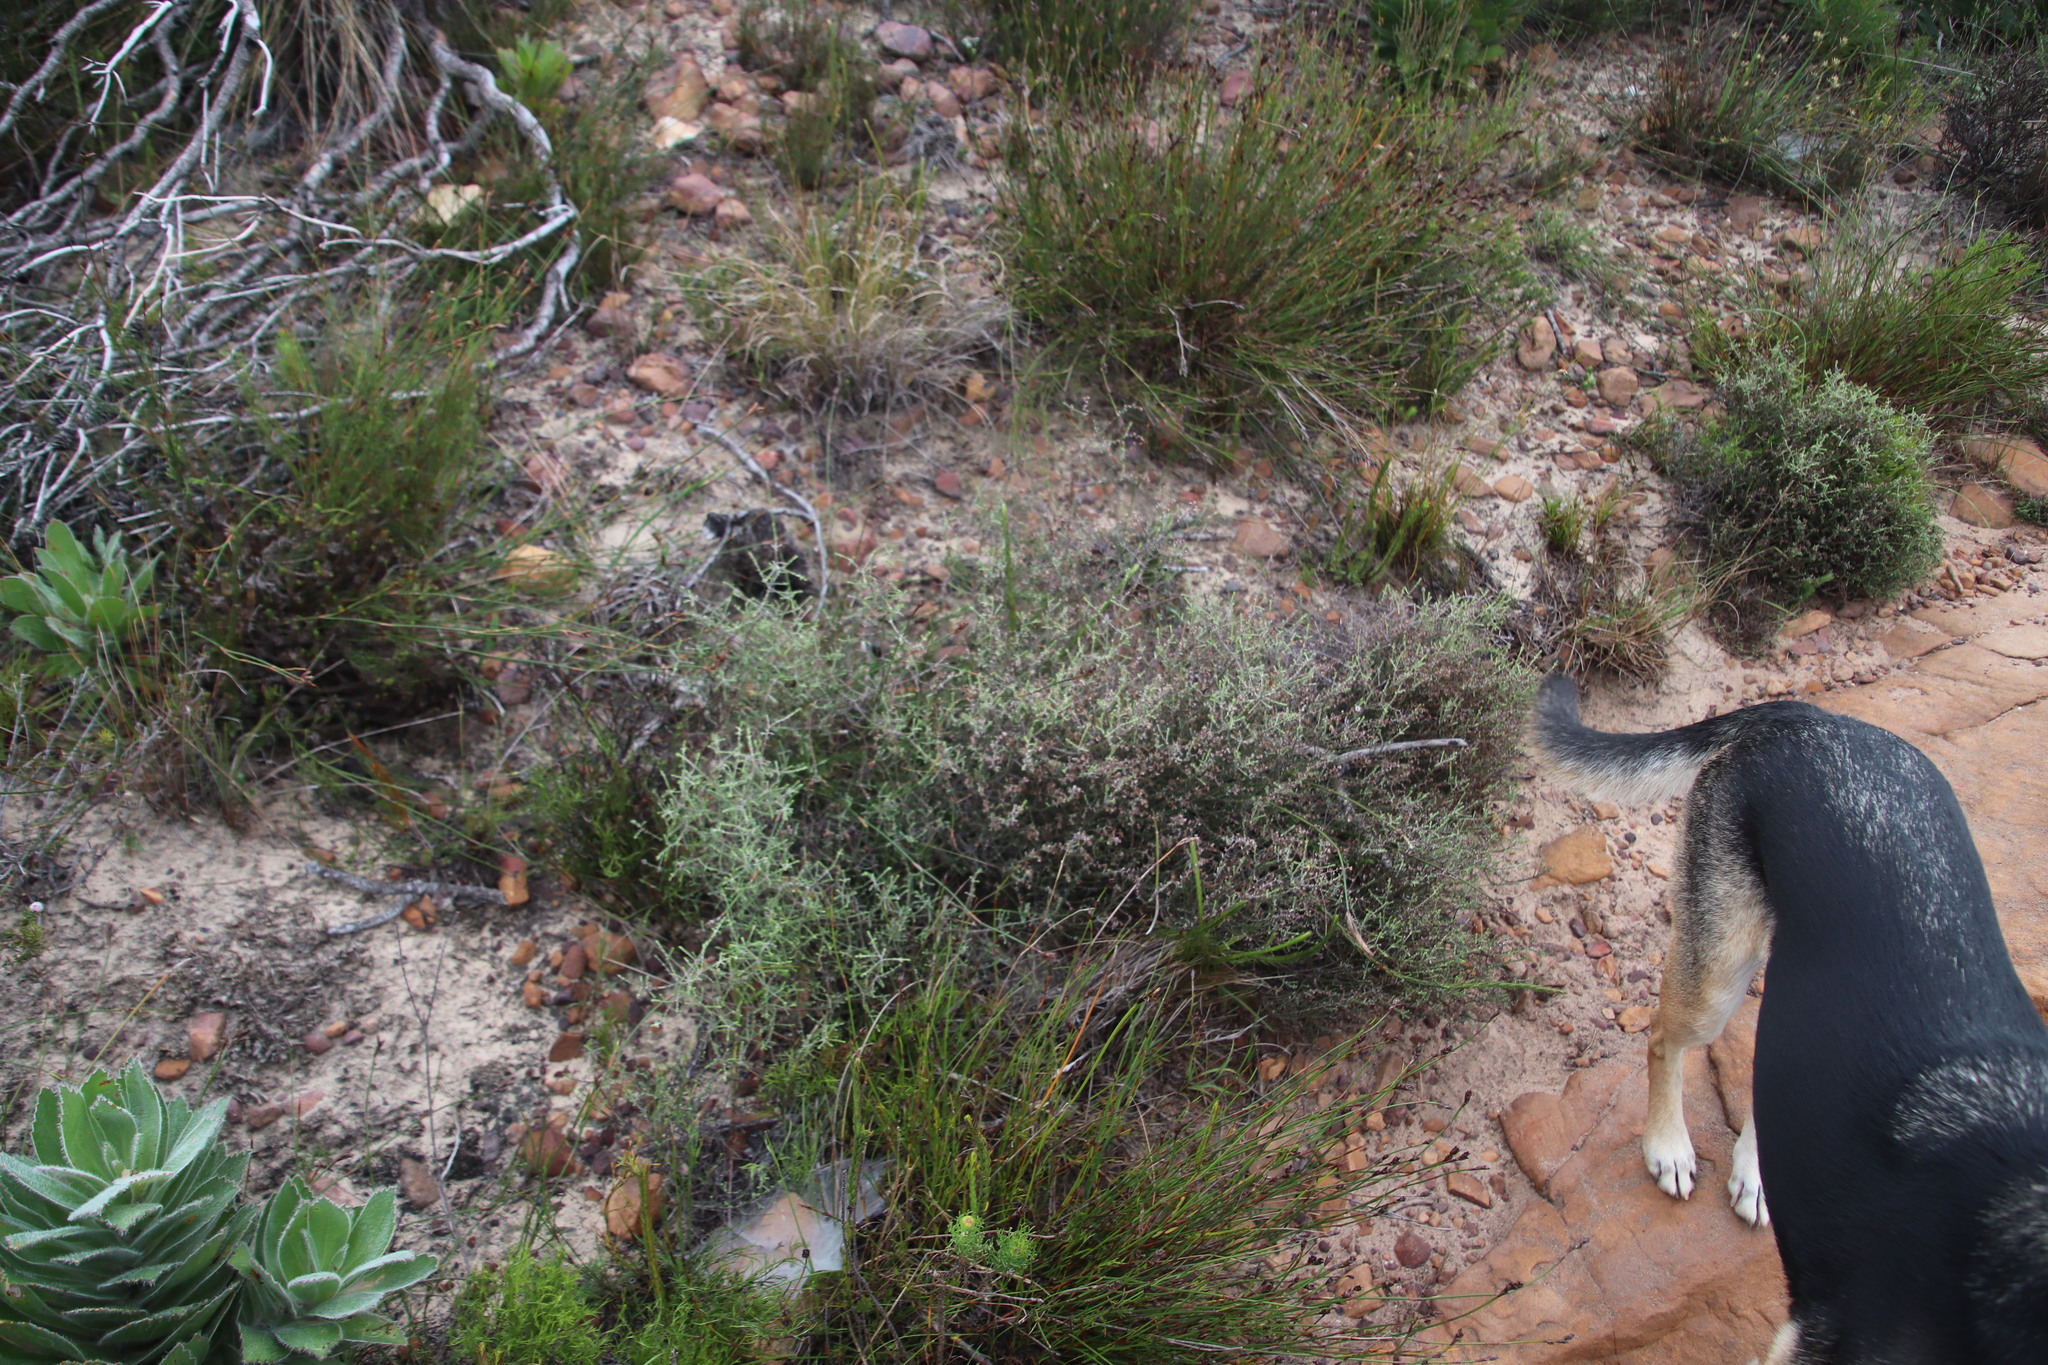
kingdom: Plantae
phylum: Tracheophyta
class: Magnoliopsida
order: Asterales
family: Asteraceae
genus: Myrovernix
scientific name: Myrovernix scaber
